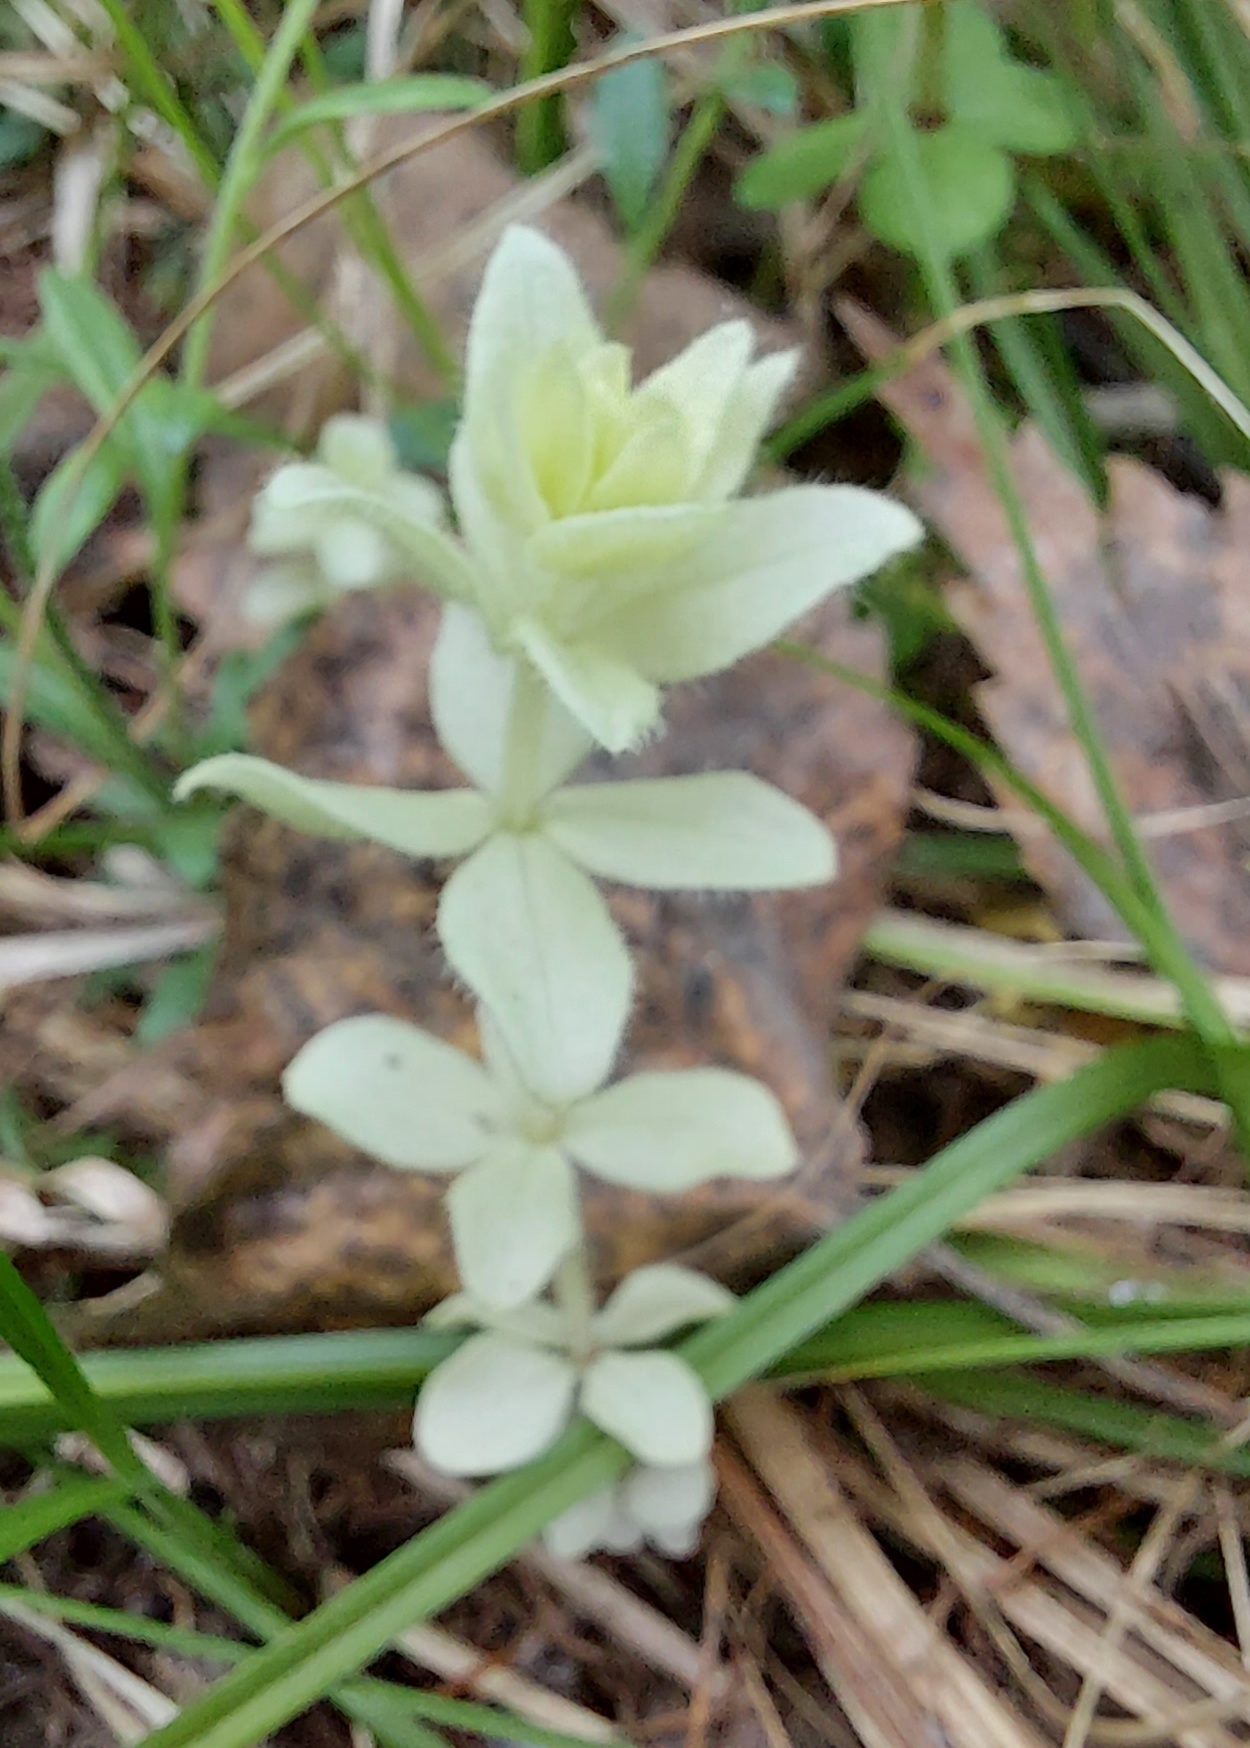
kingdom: Plantae
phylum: Tracheophyta
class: Magnoliopsida
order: Gentianales
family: Rubiaceae
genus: Cruciata
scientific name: Cruciata glabra
